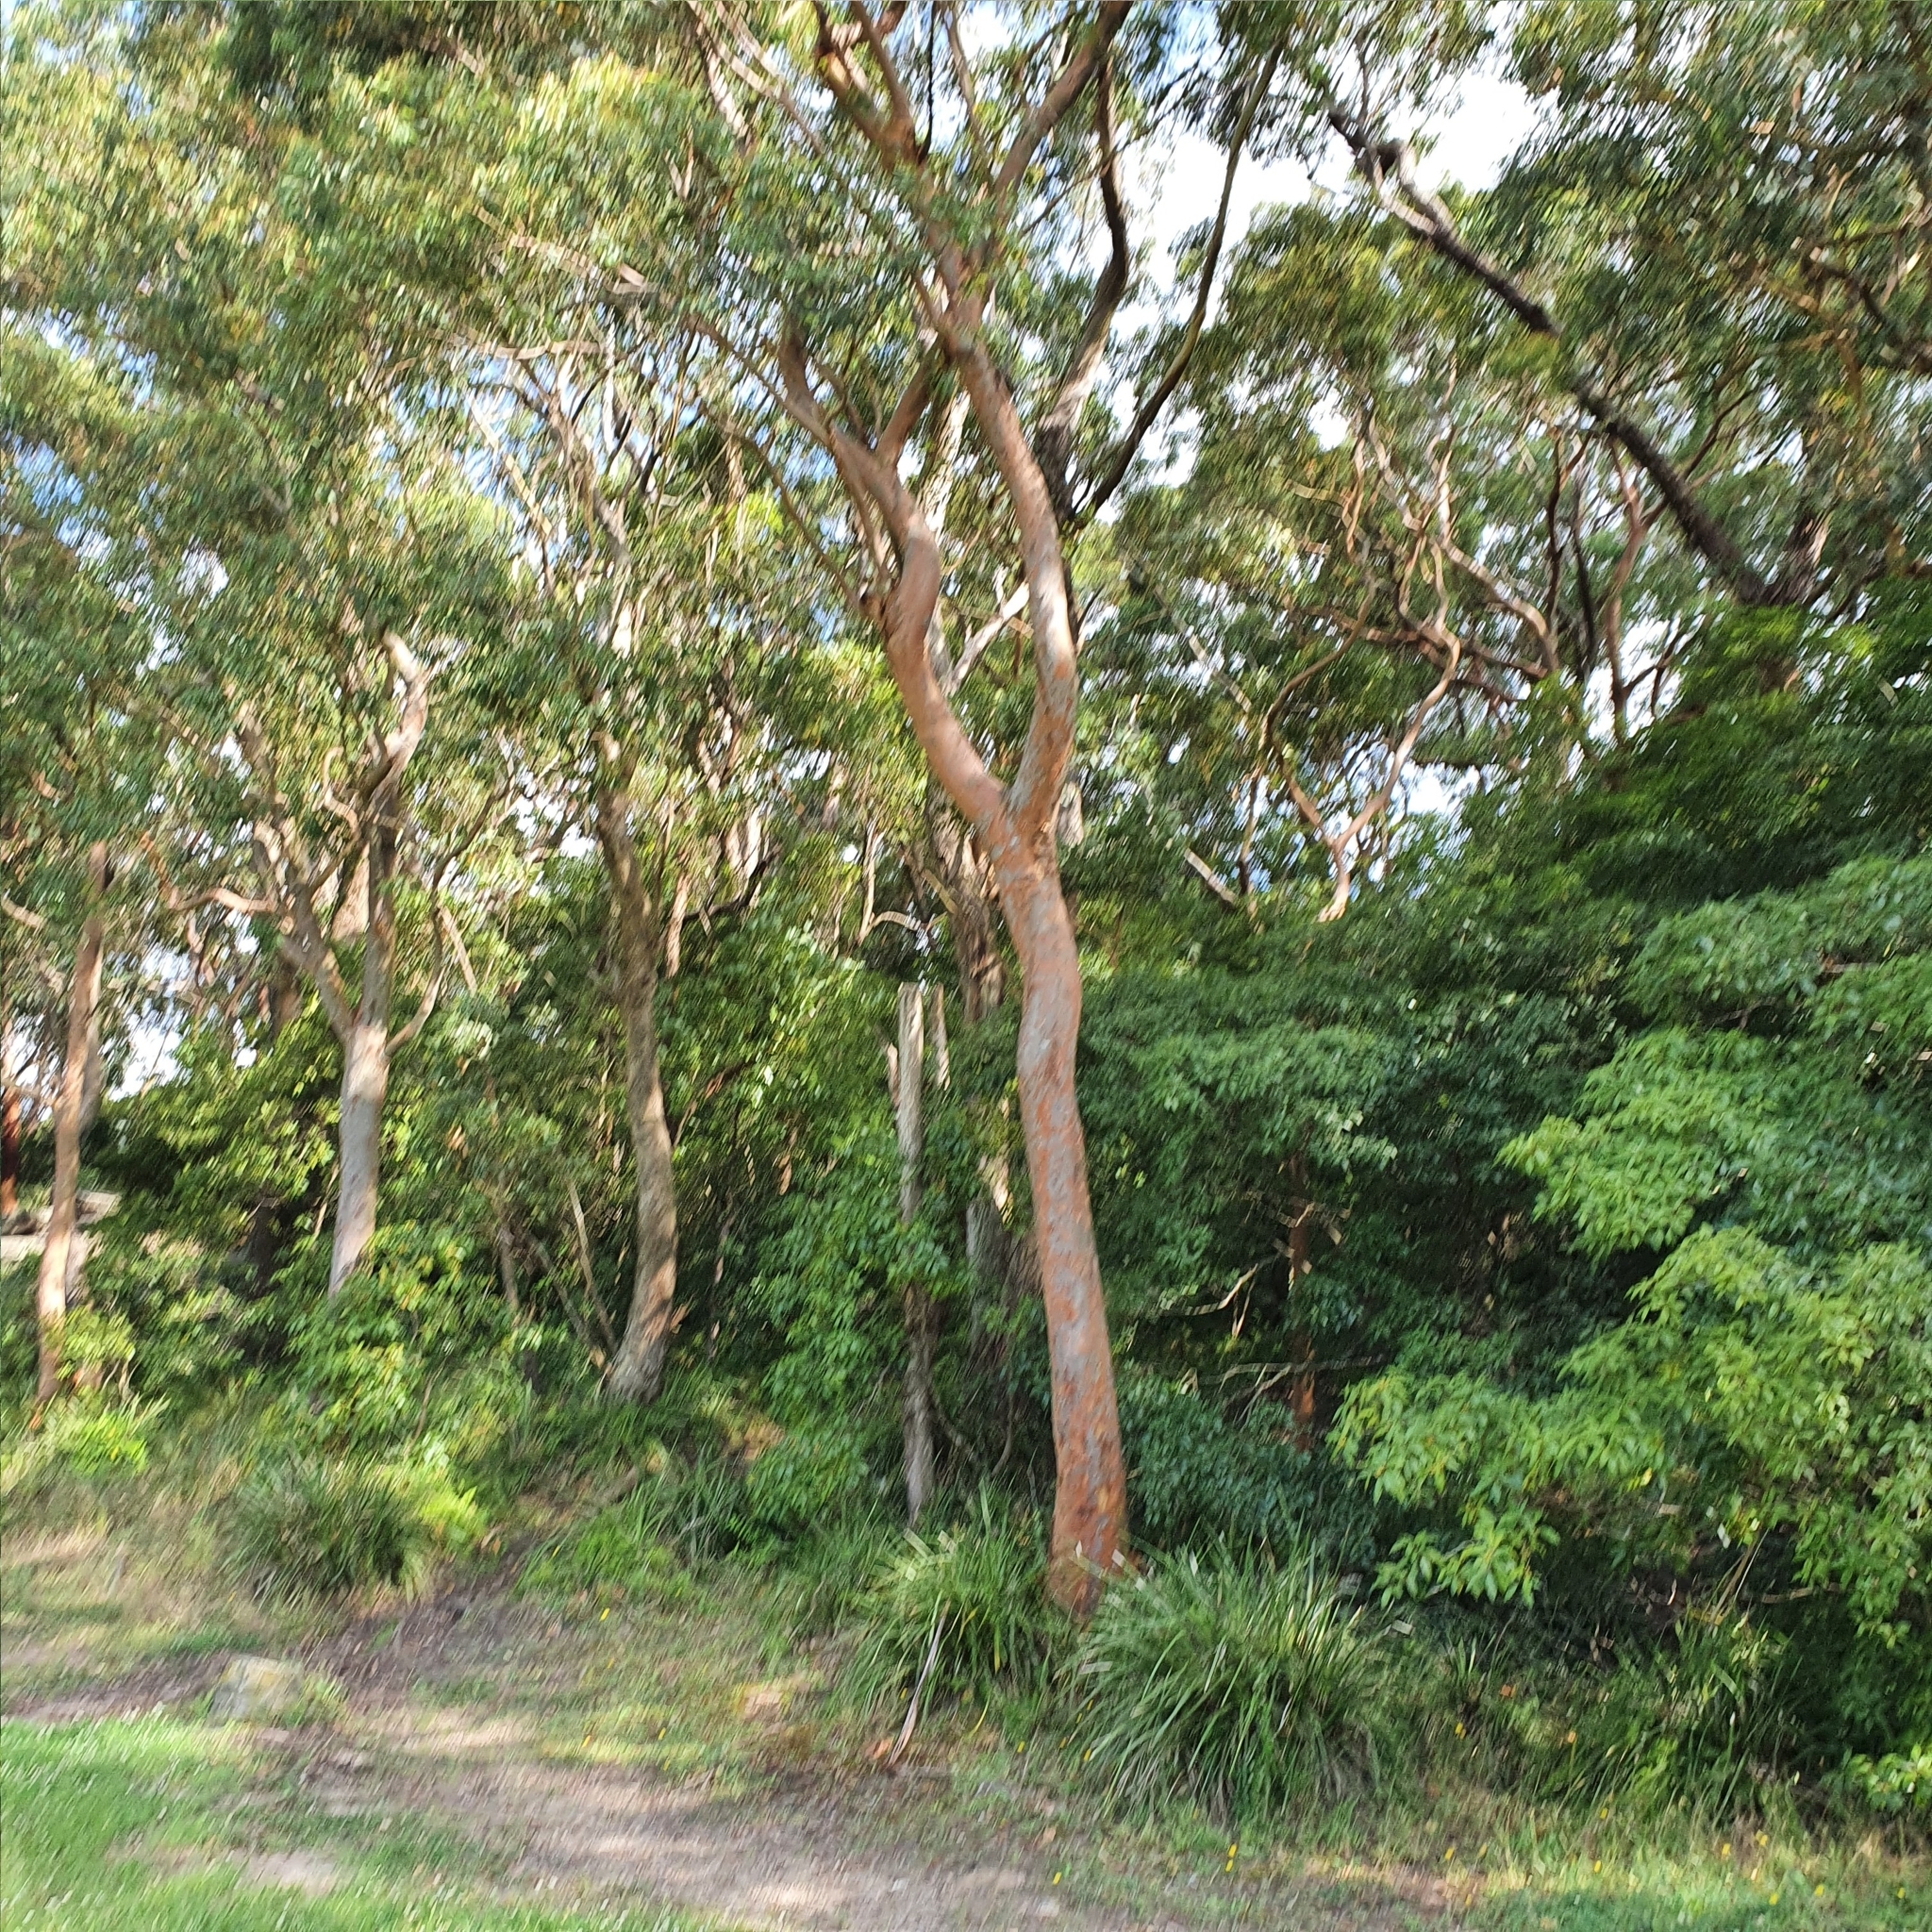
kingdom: Plantae
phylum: Tracheophyta
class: Magnoliopsida
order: Myrtales
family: Myrtaceae
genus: Angophora
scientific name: Angophora costata
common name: Gum myrtle
